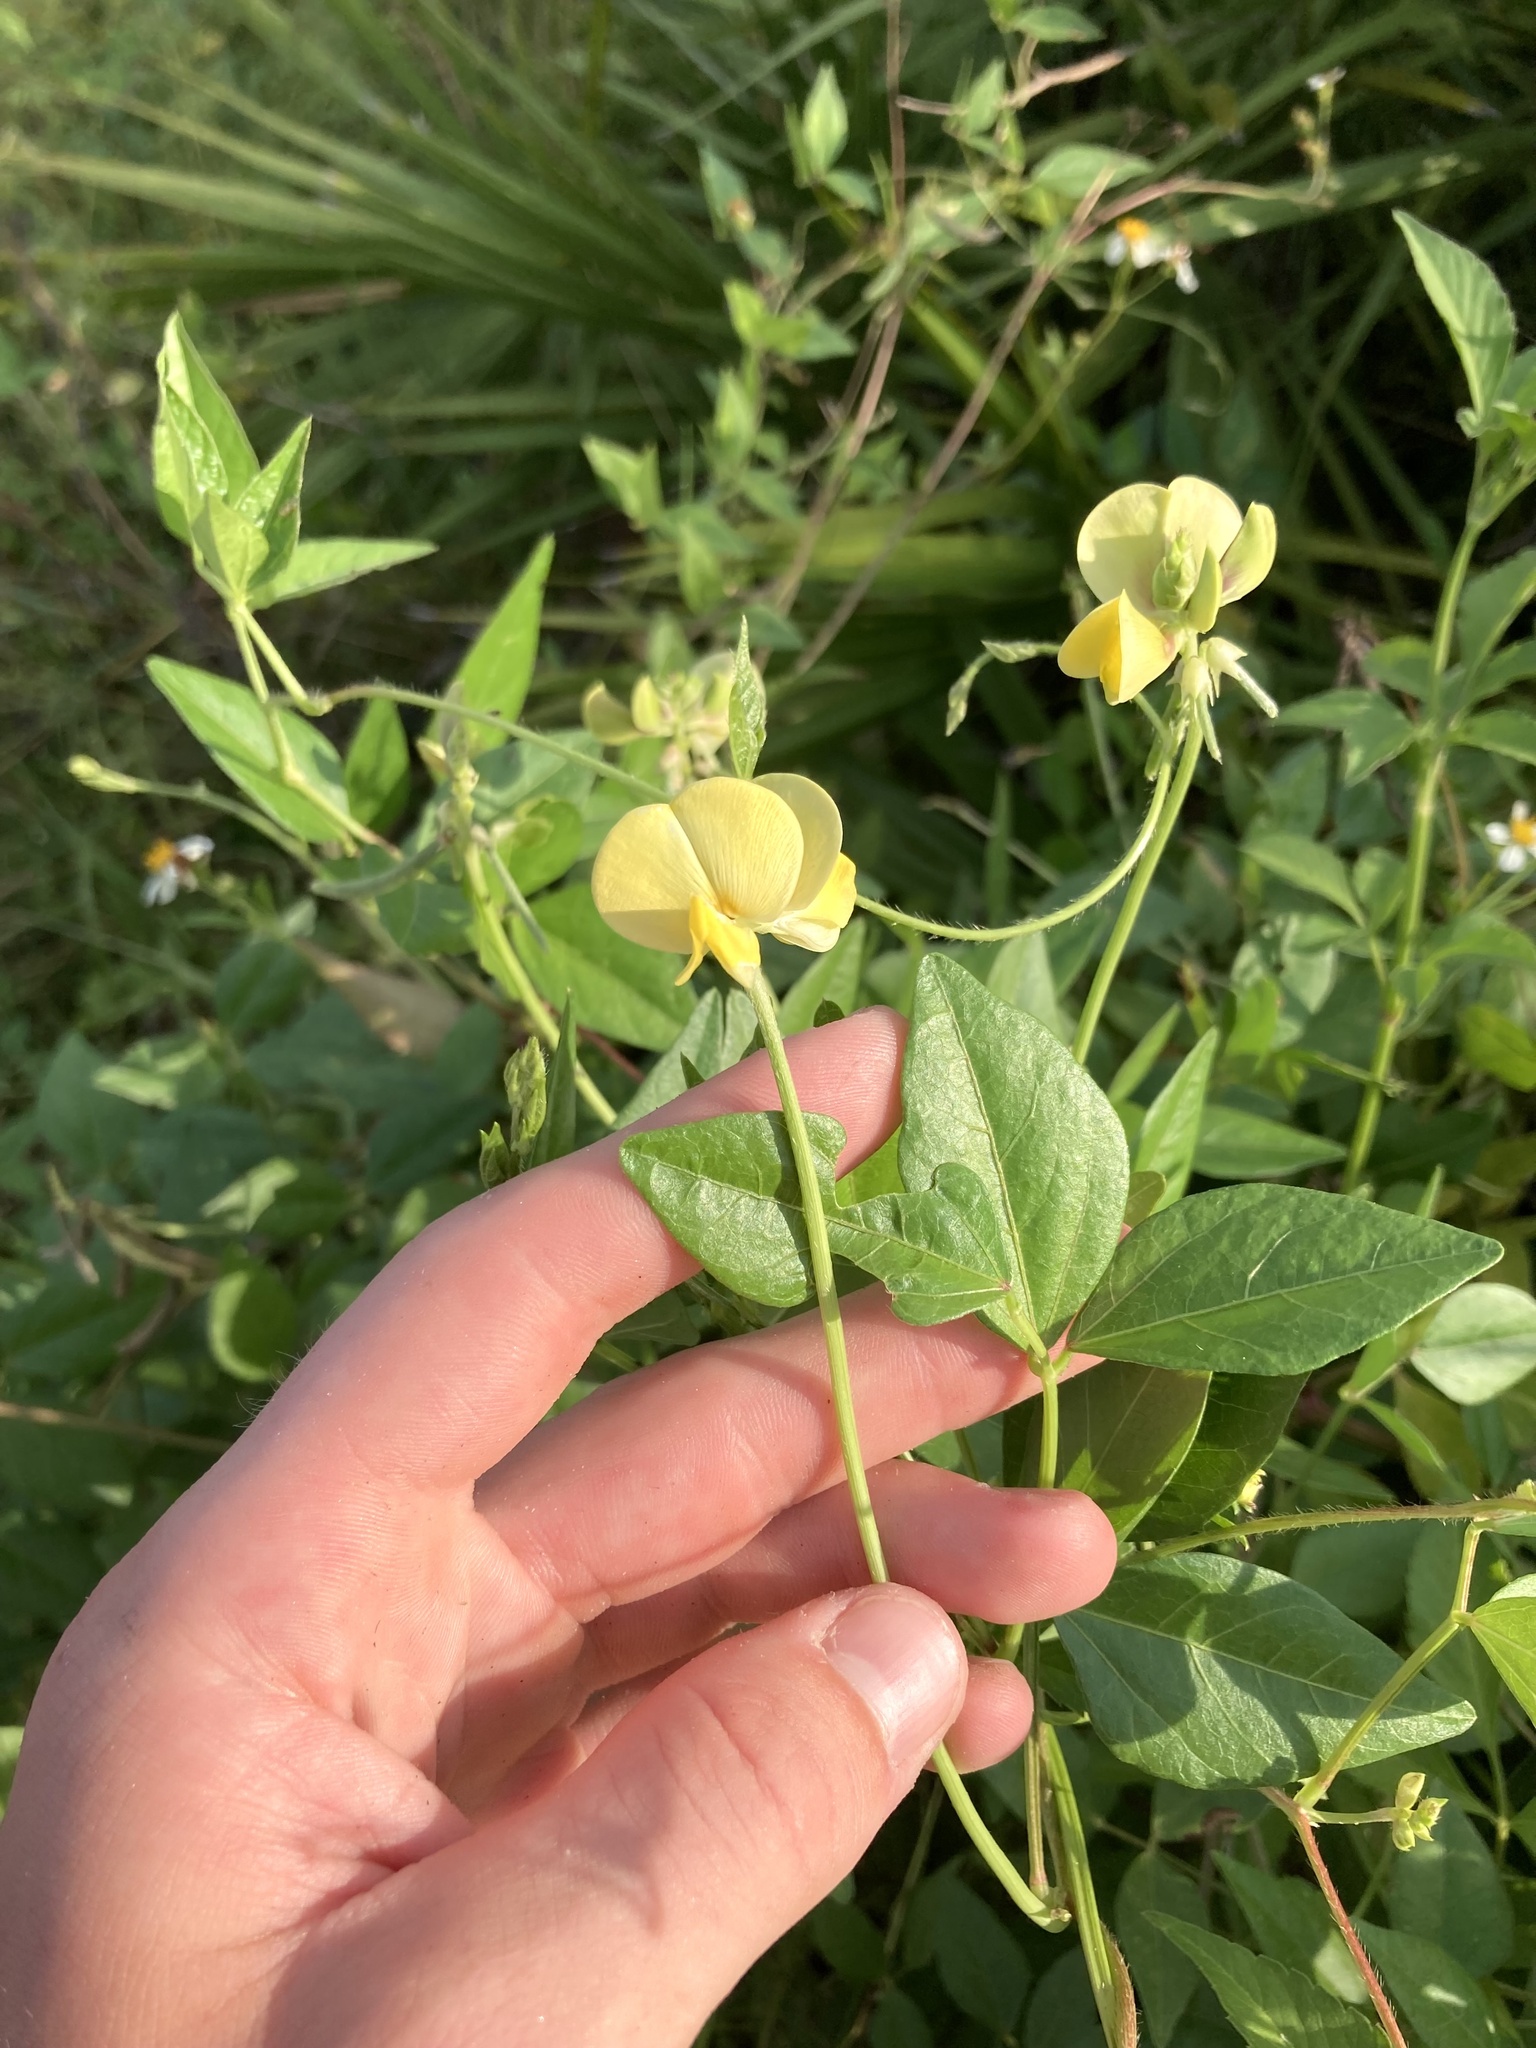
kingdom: Plantae
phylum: Tracheophyta
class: Magnoliopsida
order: Fabales
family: Fabaceae
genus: Vigna
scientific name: Vigna luteola
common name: Hairypod cowpea
